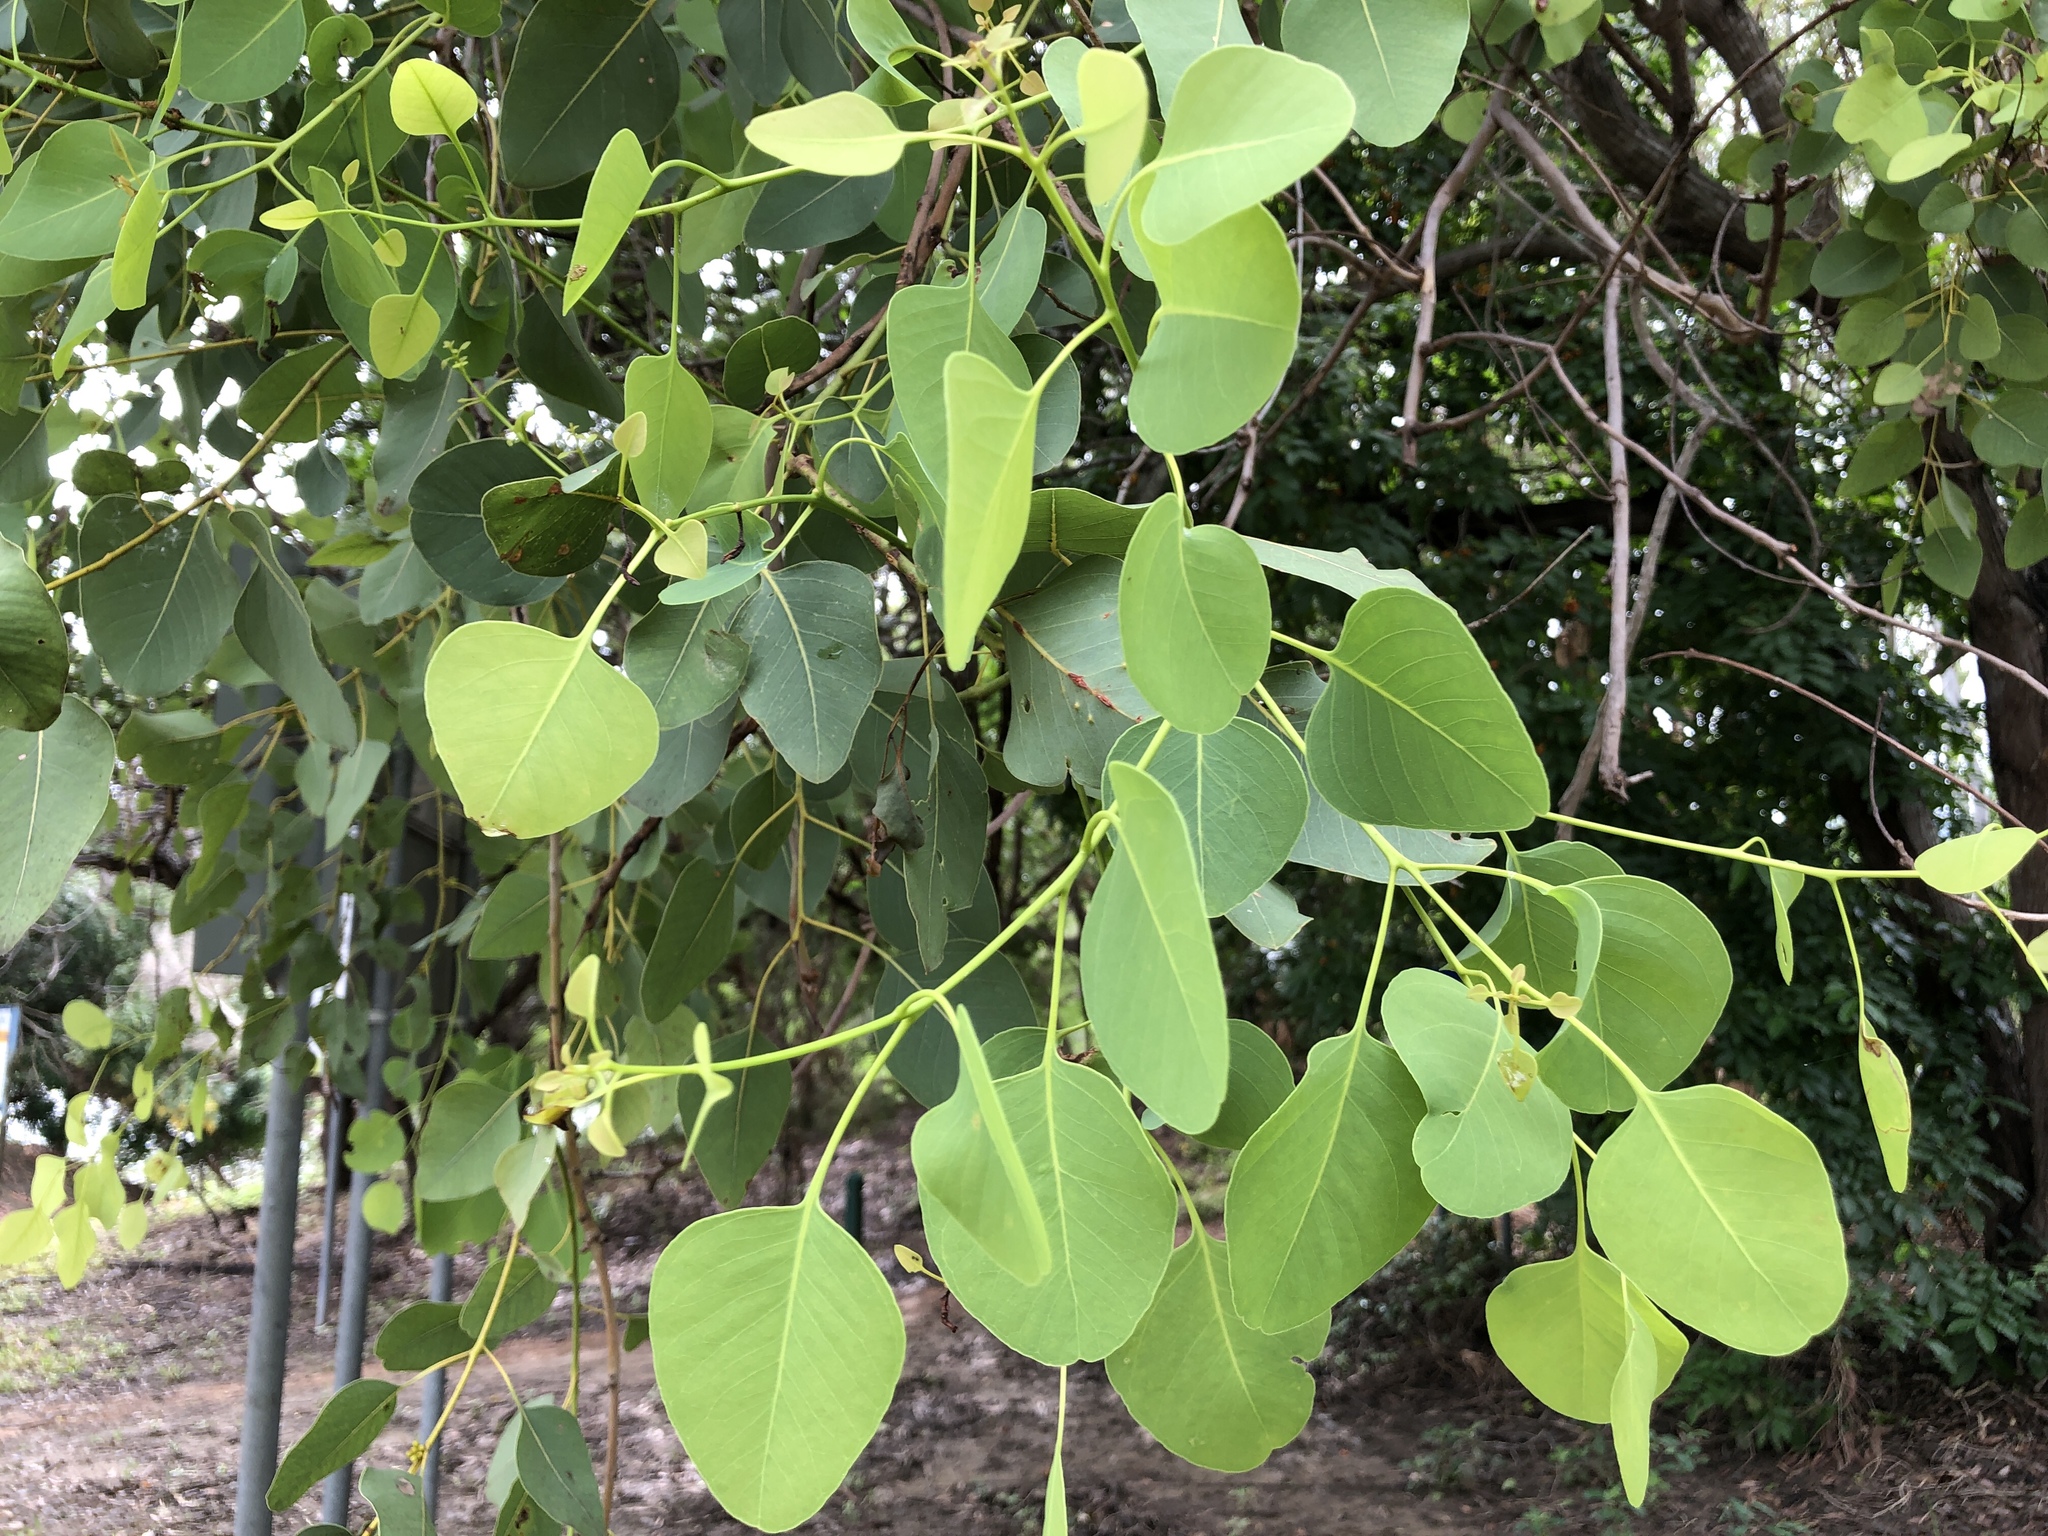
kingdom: Plantae
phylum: Tracheophyta
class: Magnoliopsida
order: Myrtales
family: Myrtaceae
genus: Eucalyptus
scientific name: Eucalyptus platyphylla
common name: Poplar-gum
